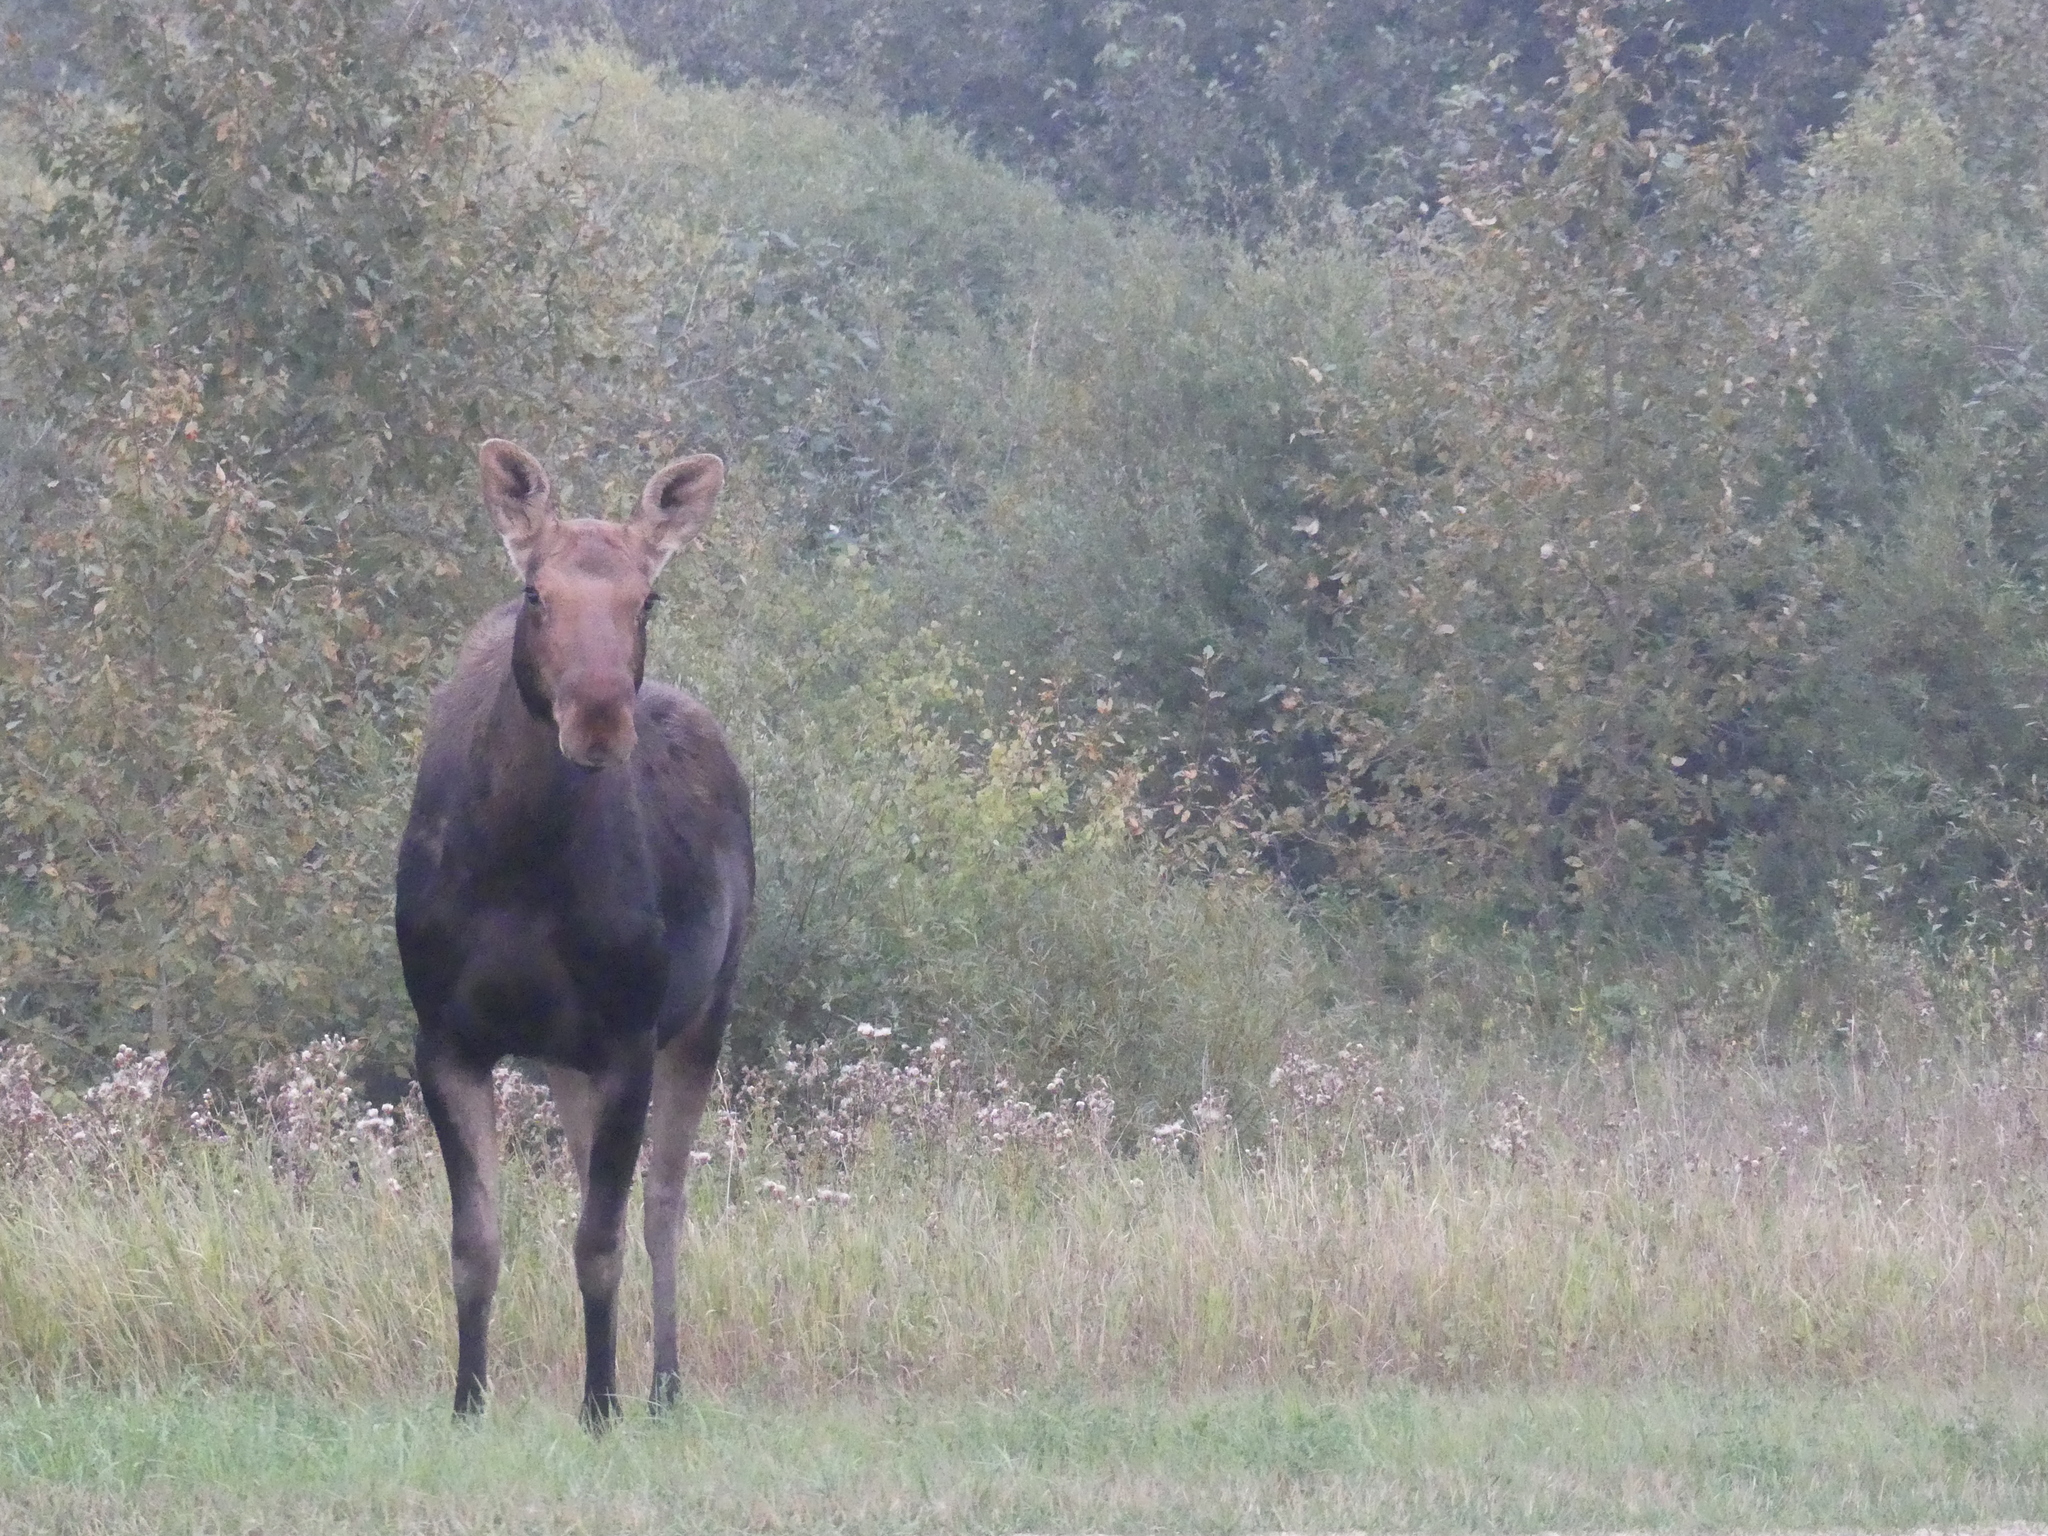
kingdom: Animalia
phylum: Chordata
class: Mammalia
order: Artiodactyla
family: Cervidae
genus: Alces
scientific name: Alces alces
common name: Moose
